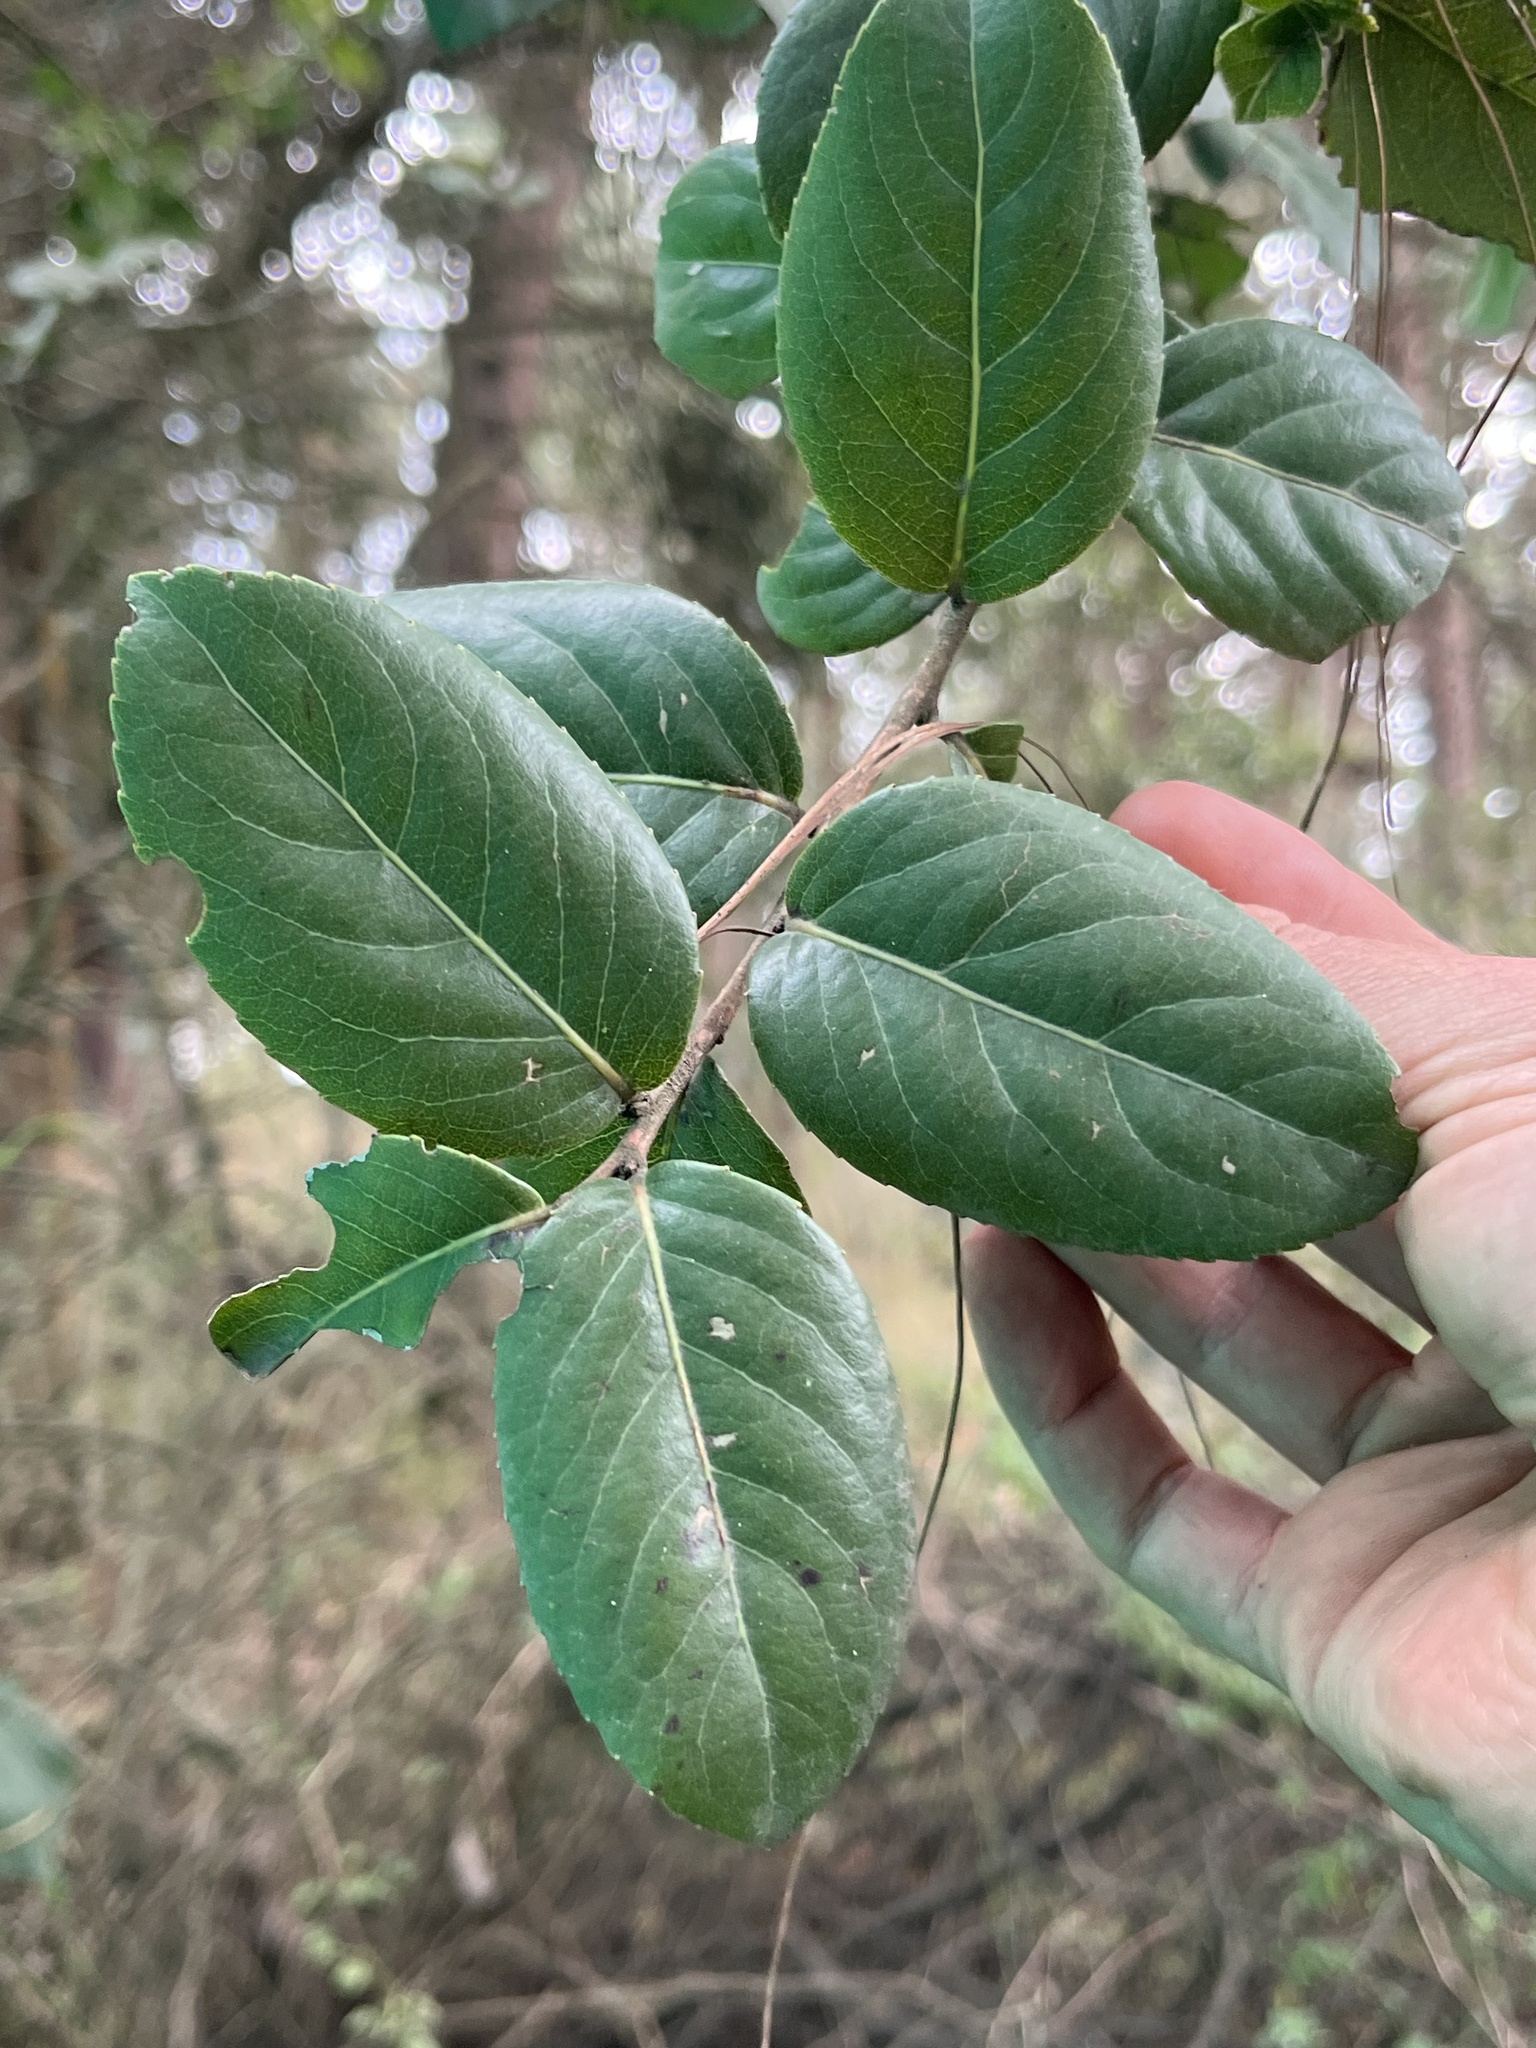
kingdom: Plantae
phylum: Tracheophyta
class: Magnoliopsida
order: Malpighiales
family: Salicaceae
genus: Xylosma
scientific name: Xylosma spiculifera
